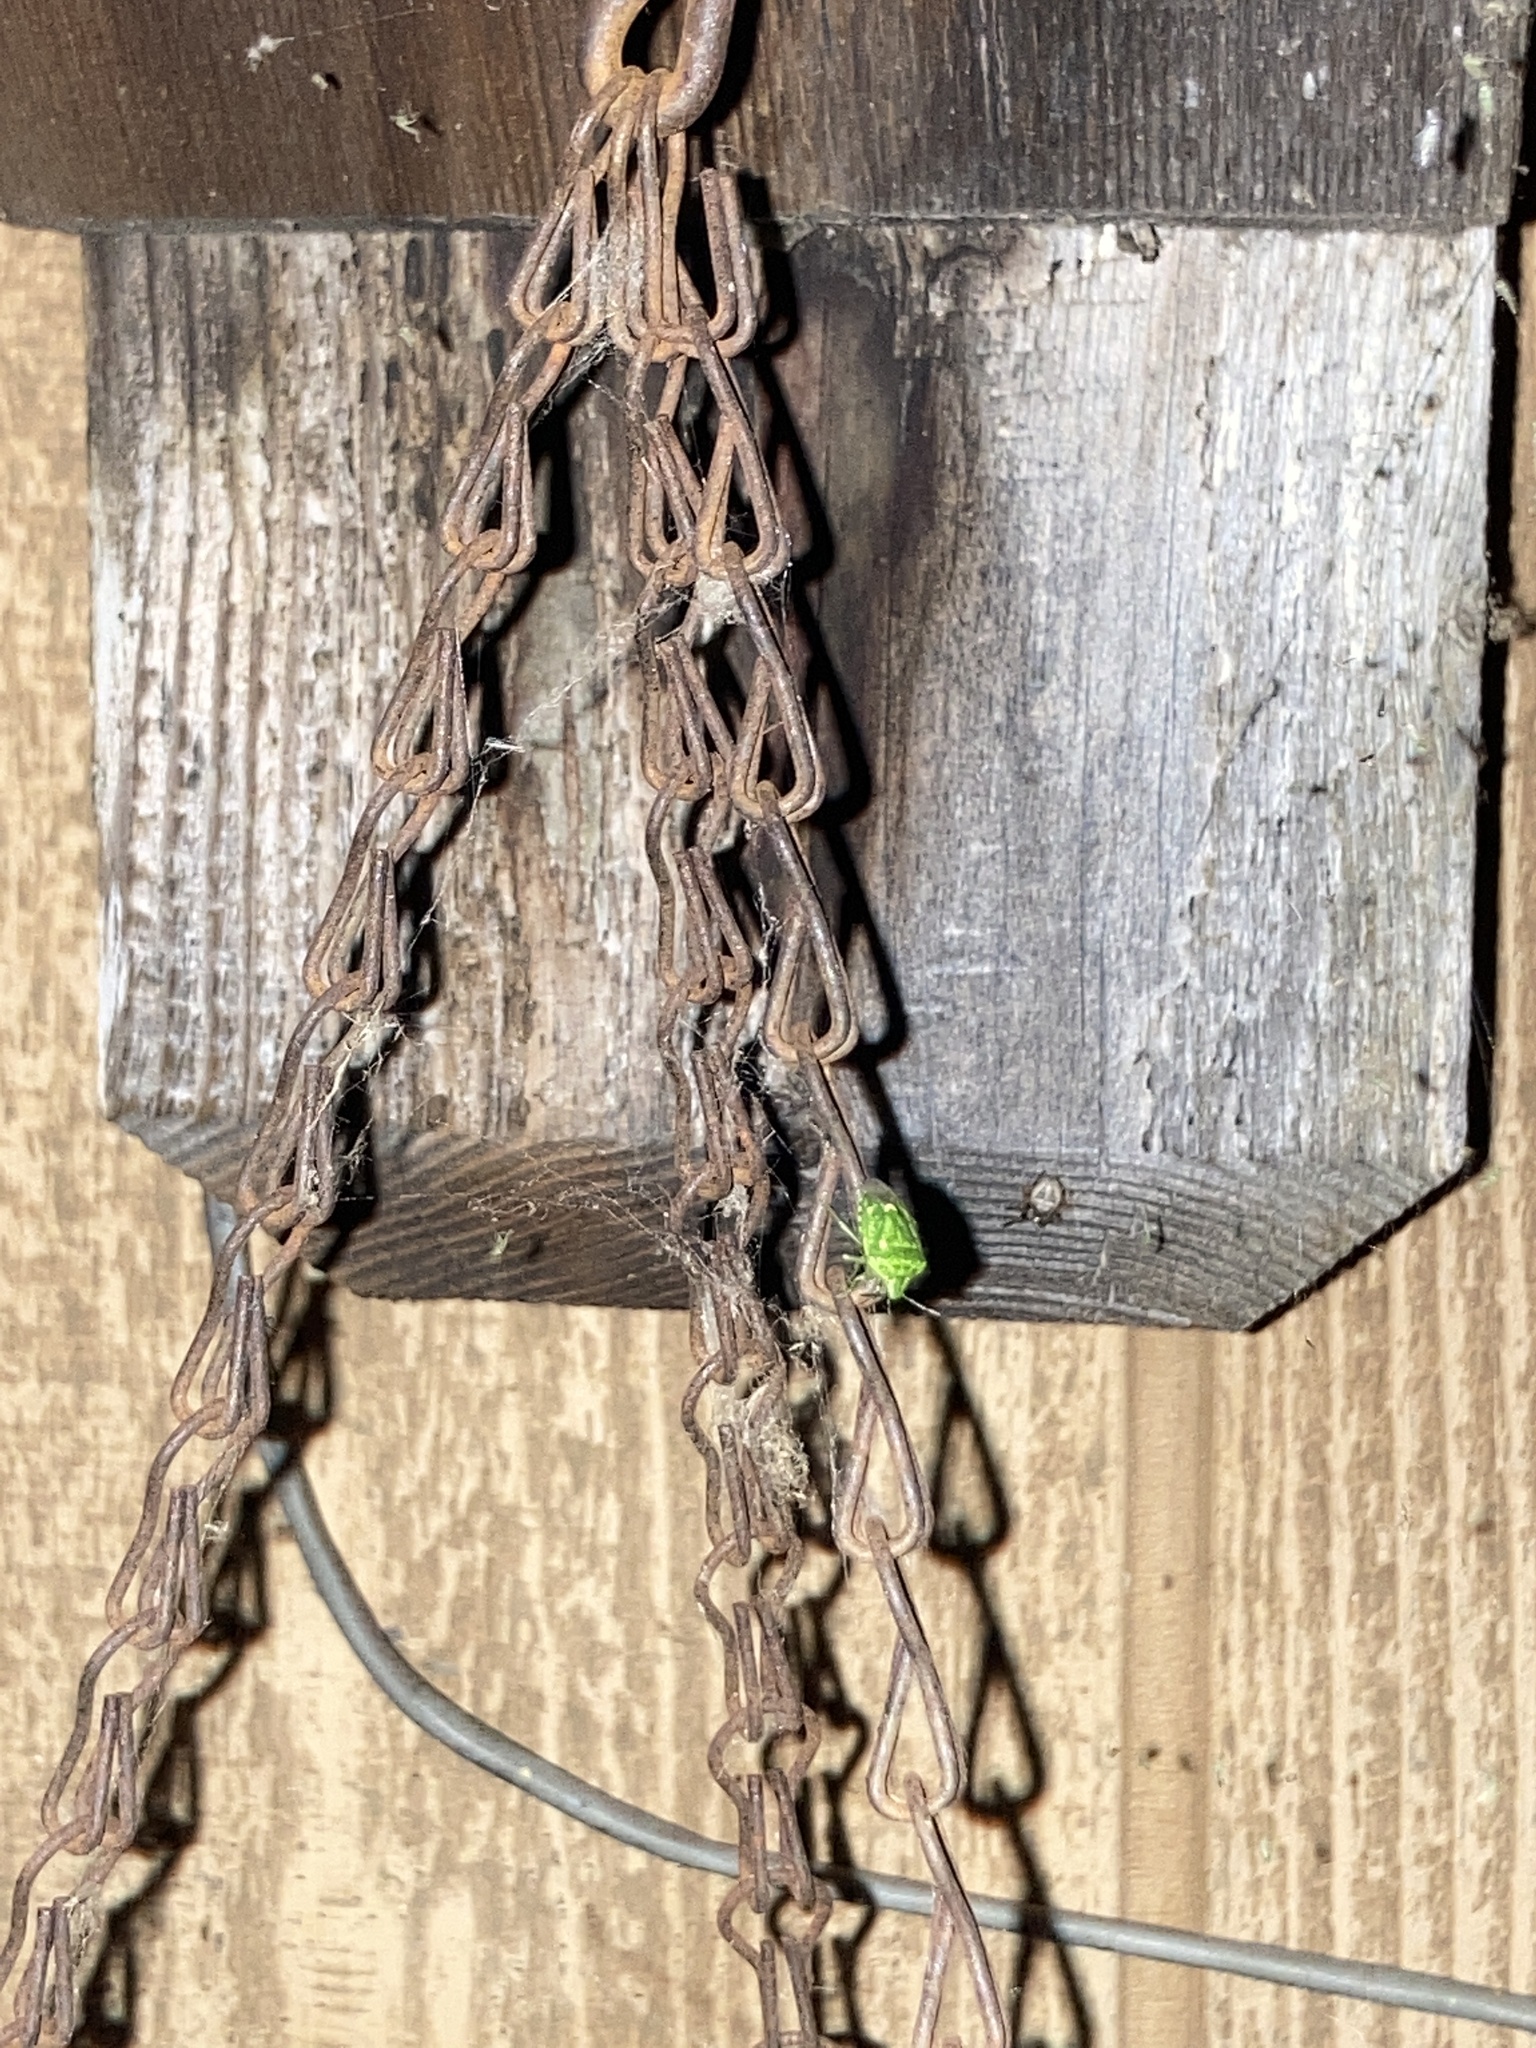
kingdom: Animalia
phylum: Arthropoda
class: Insecta
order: Hemiptera
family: Pentatomidae
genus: Banasa
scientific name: Banasa euchlora
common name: Cedar berry bug
